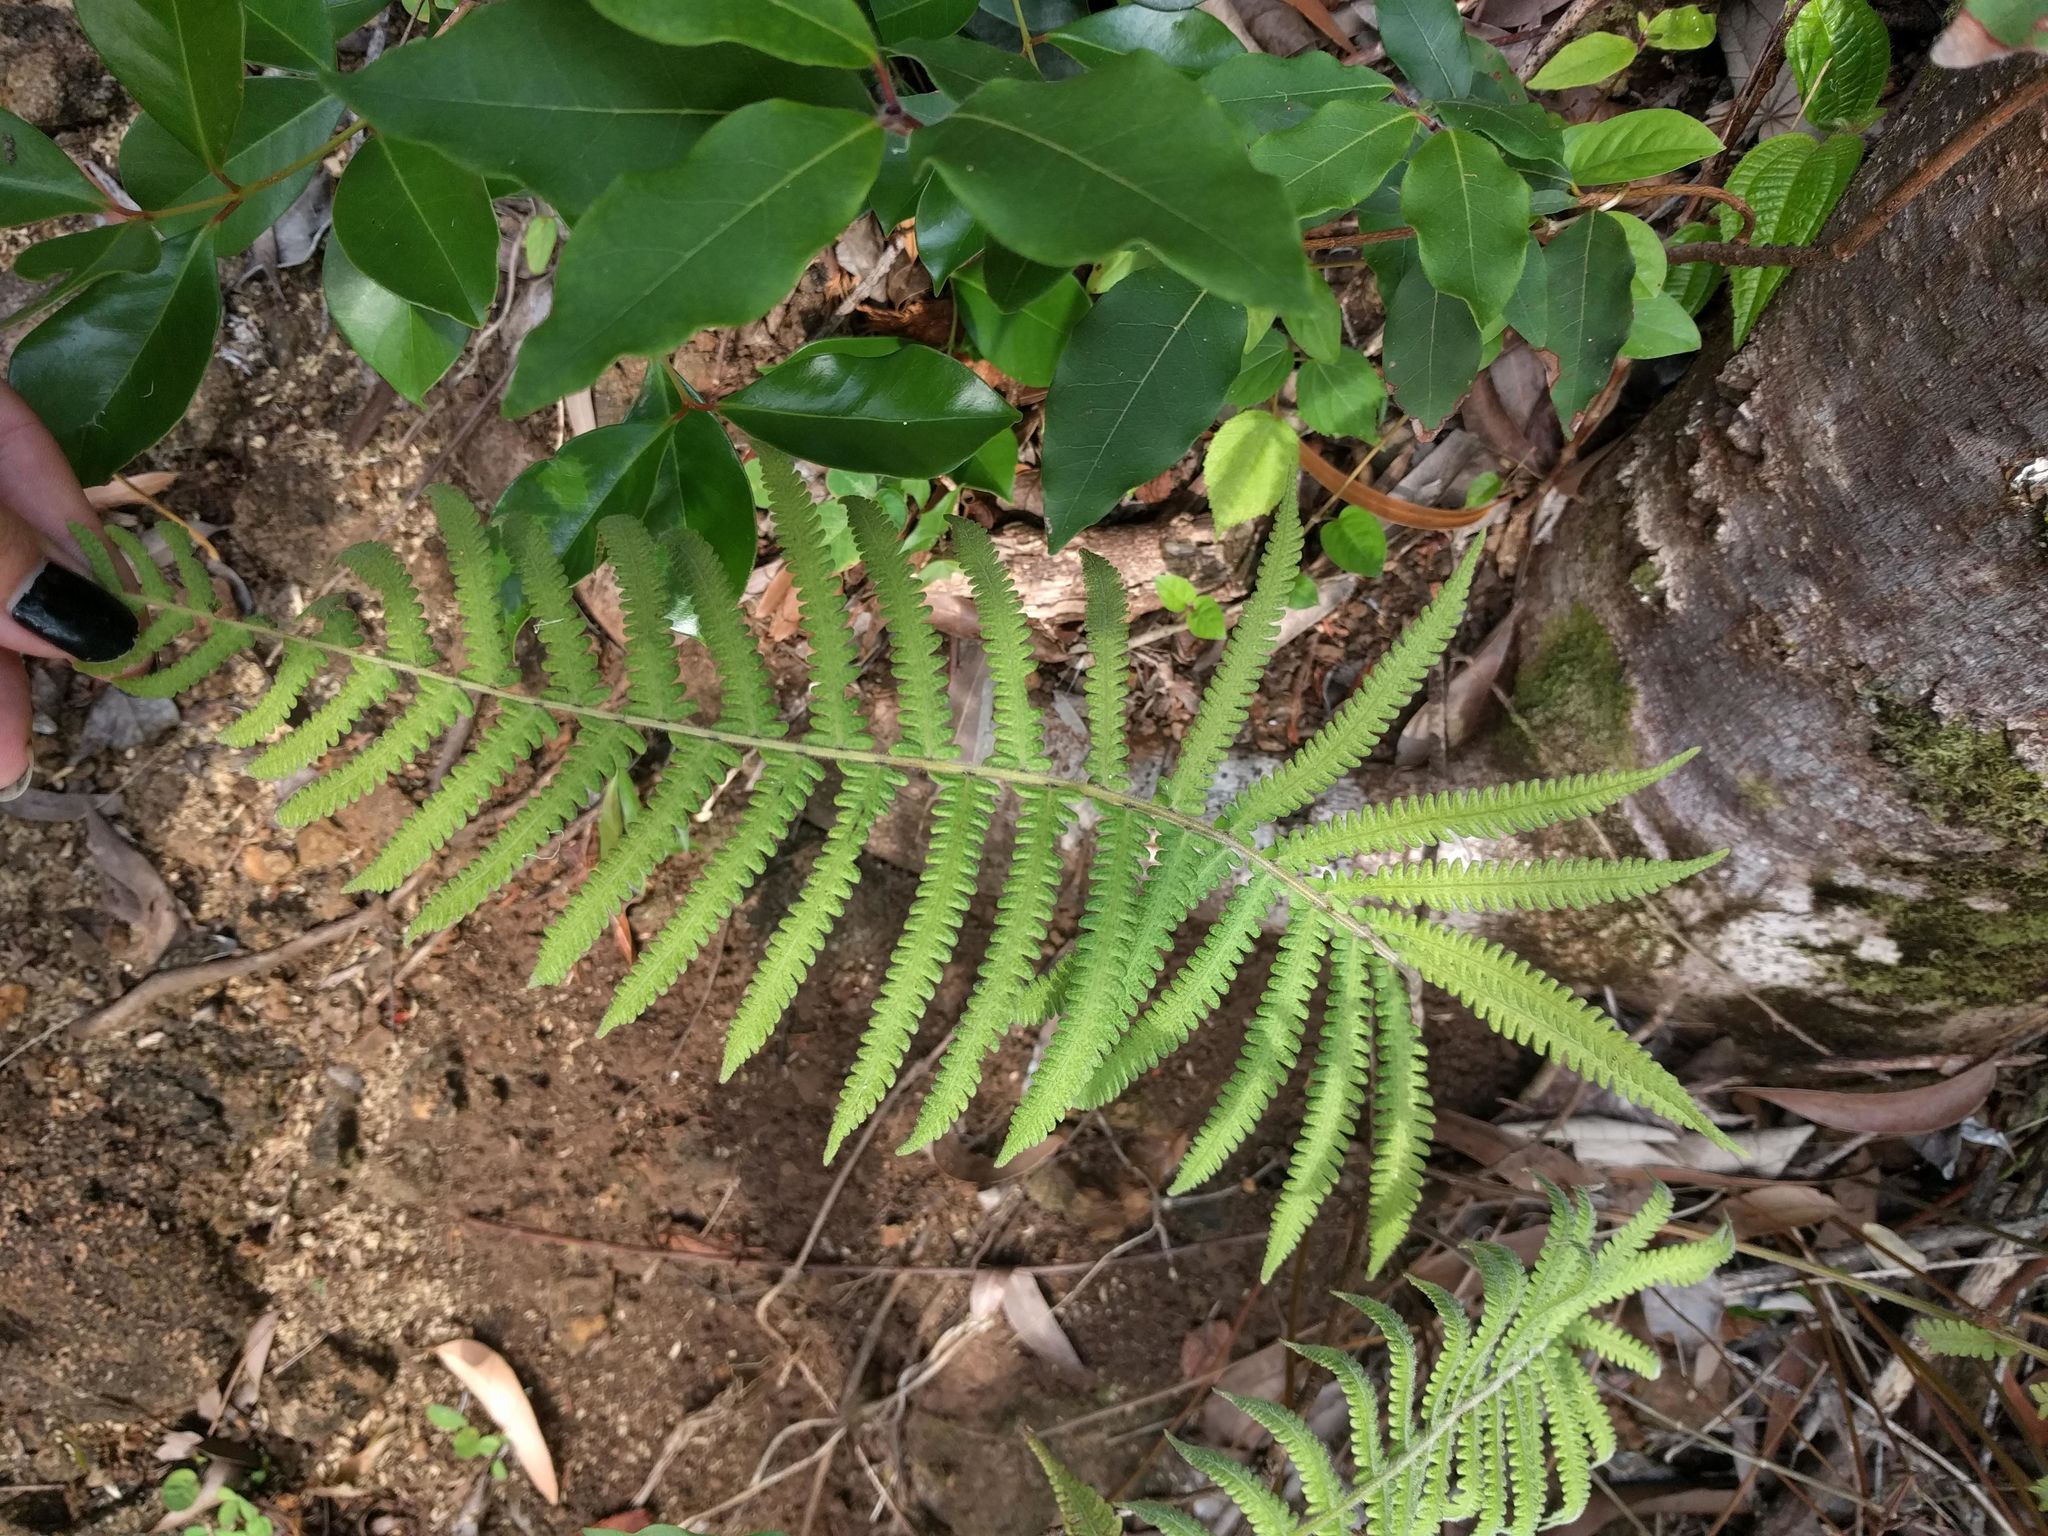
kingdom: Plantae
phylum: Tracheophyta
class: Polypodiopsida
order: Polypodiales
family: Thelypteridaceae
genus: Christella
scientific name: Christella parasitica
